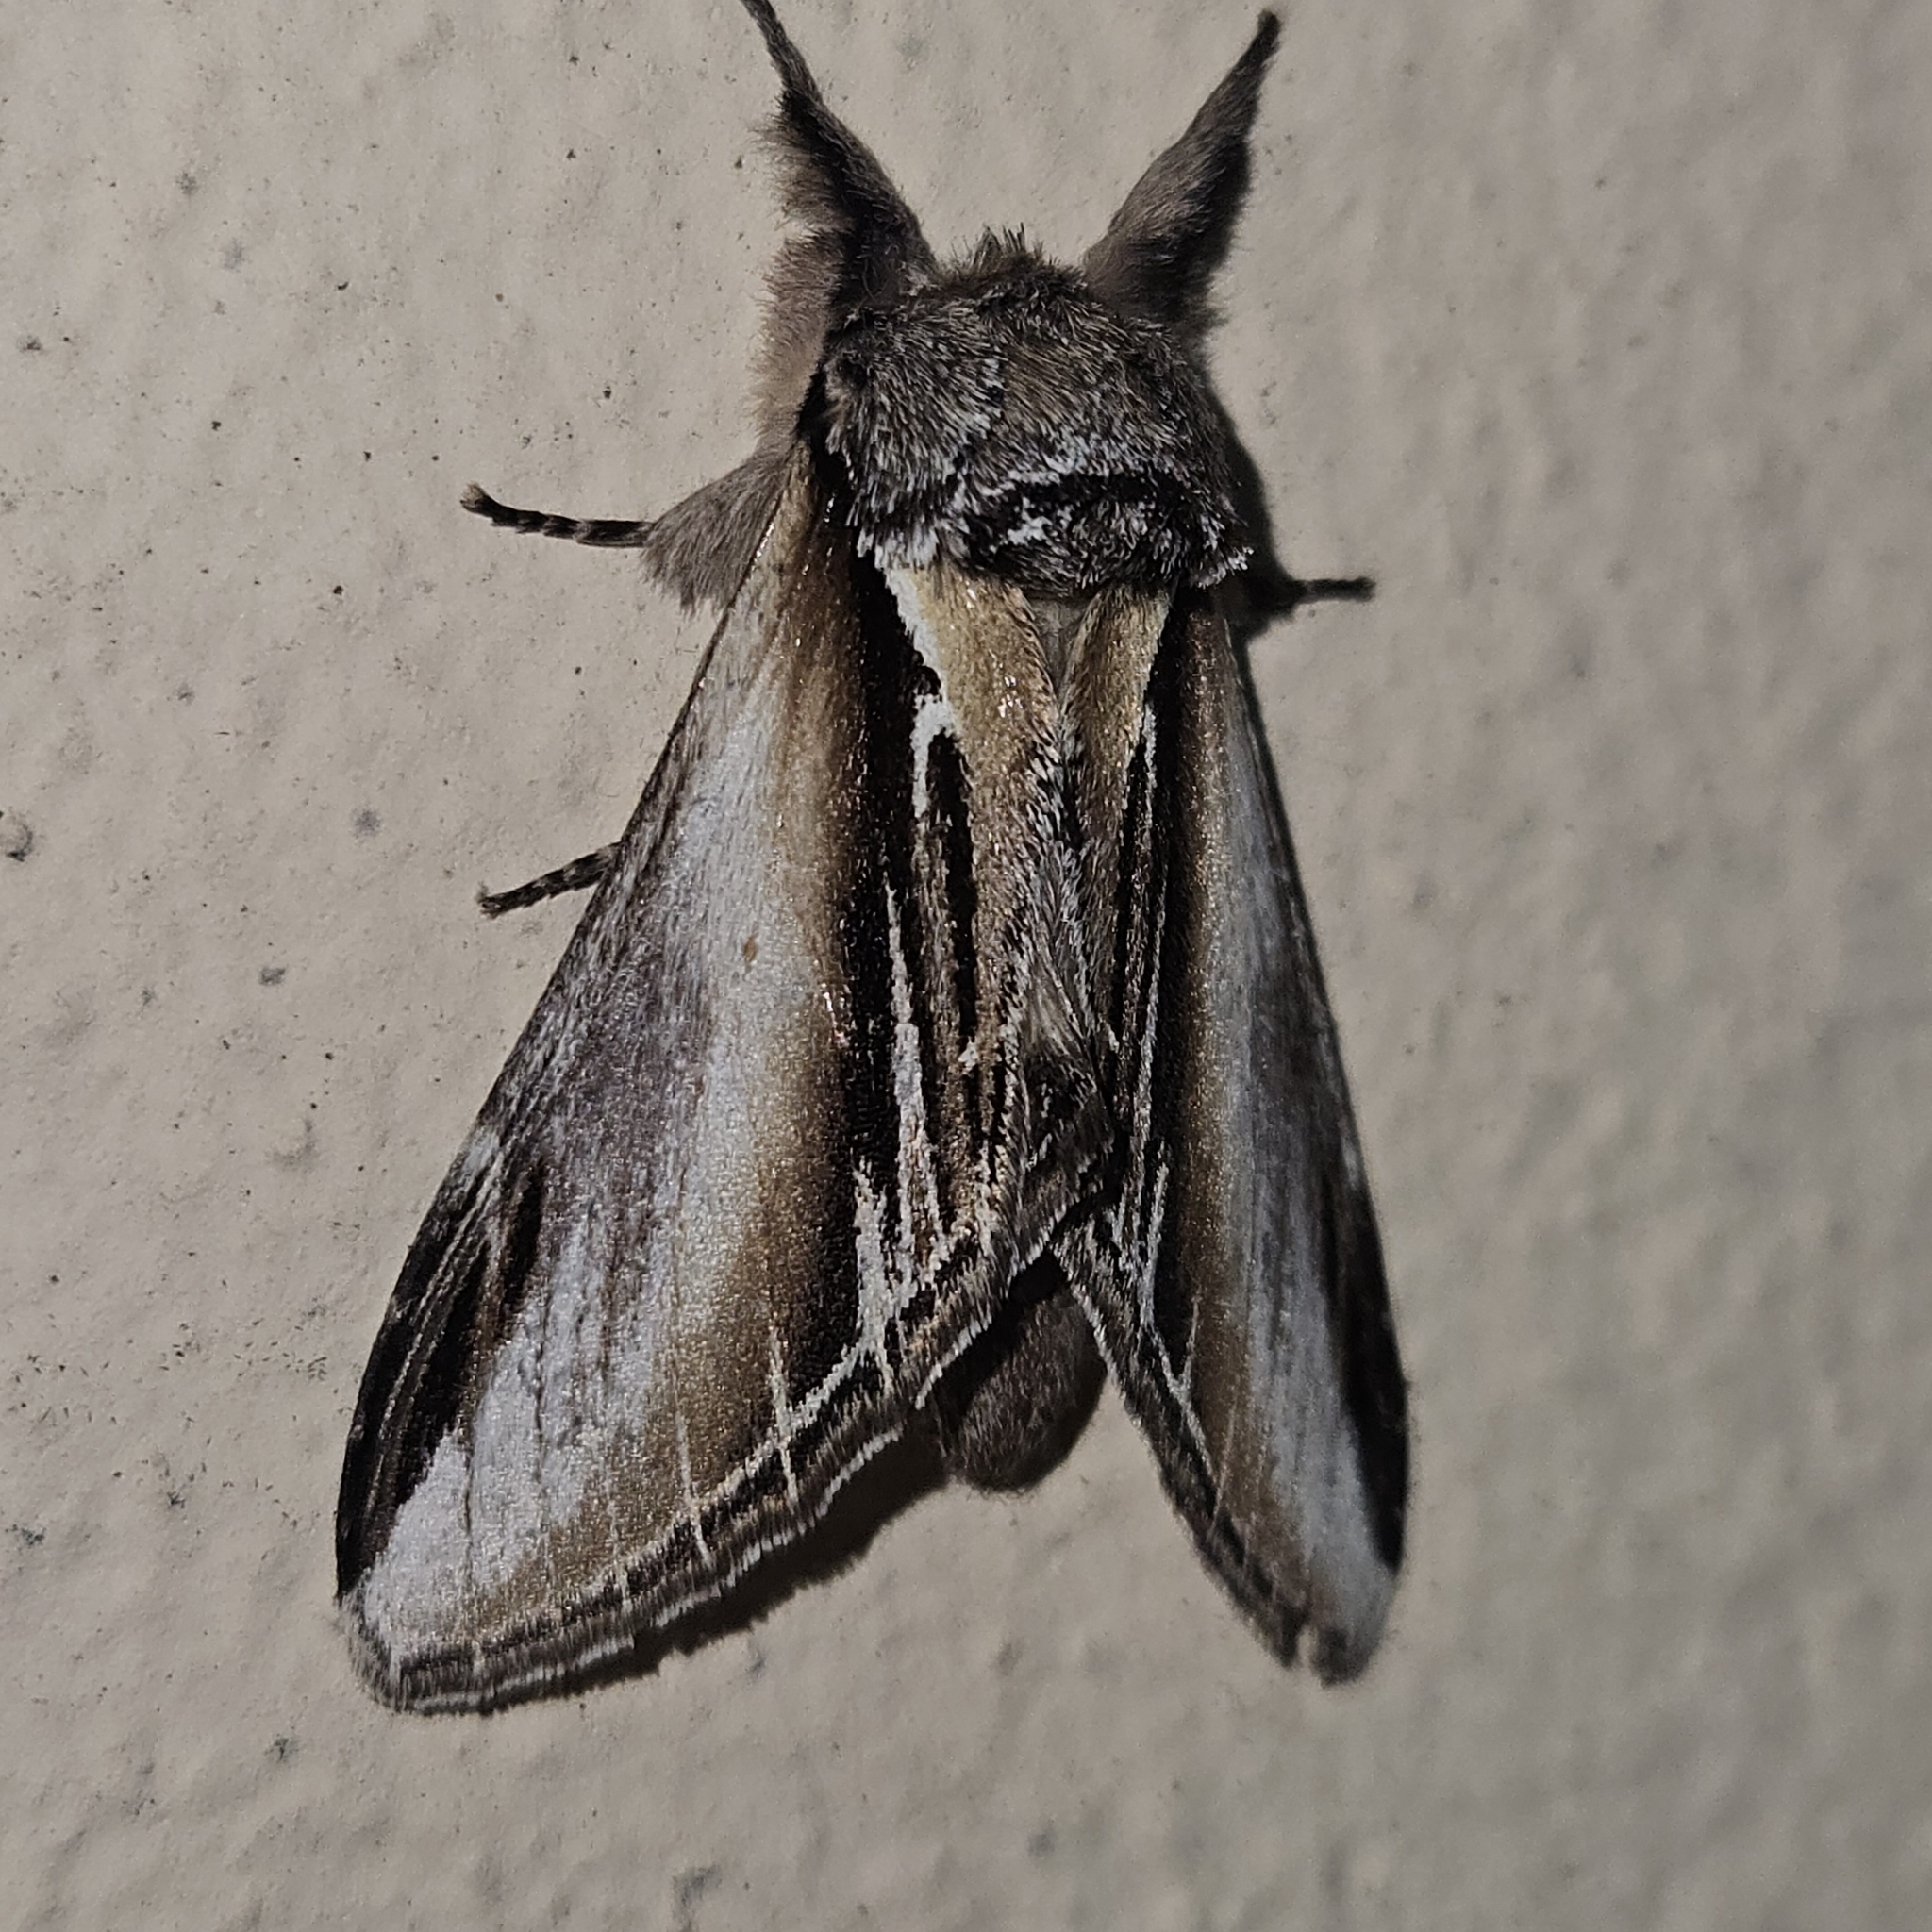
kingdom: Animalia
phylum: Arthropoda
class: Insecta
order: Lepidoptera
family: Notodontidae
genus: Pheosia
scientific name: Pheosia tremula
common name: Swallow prominent
